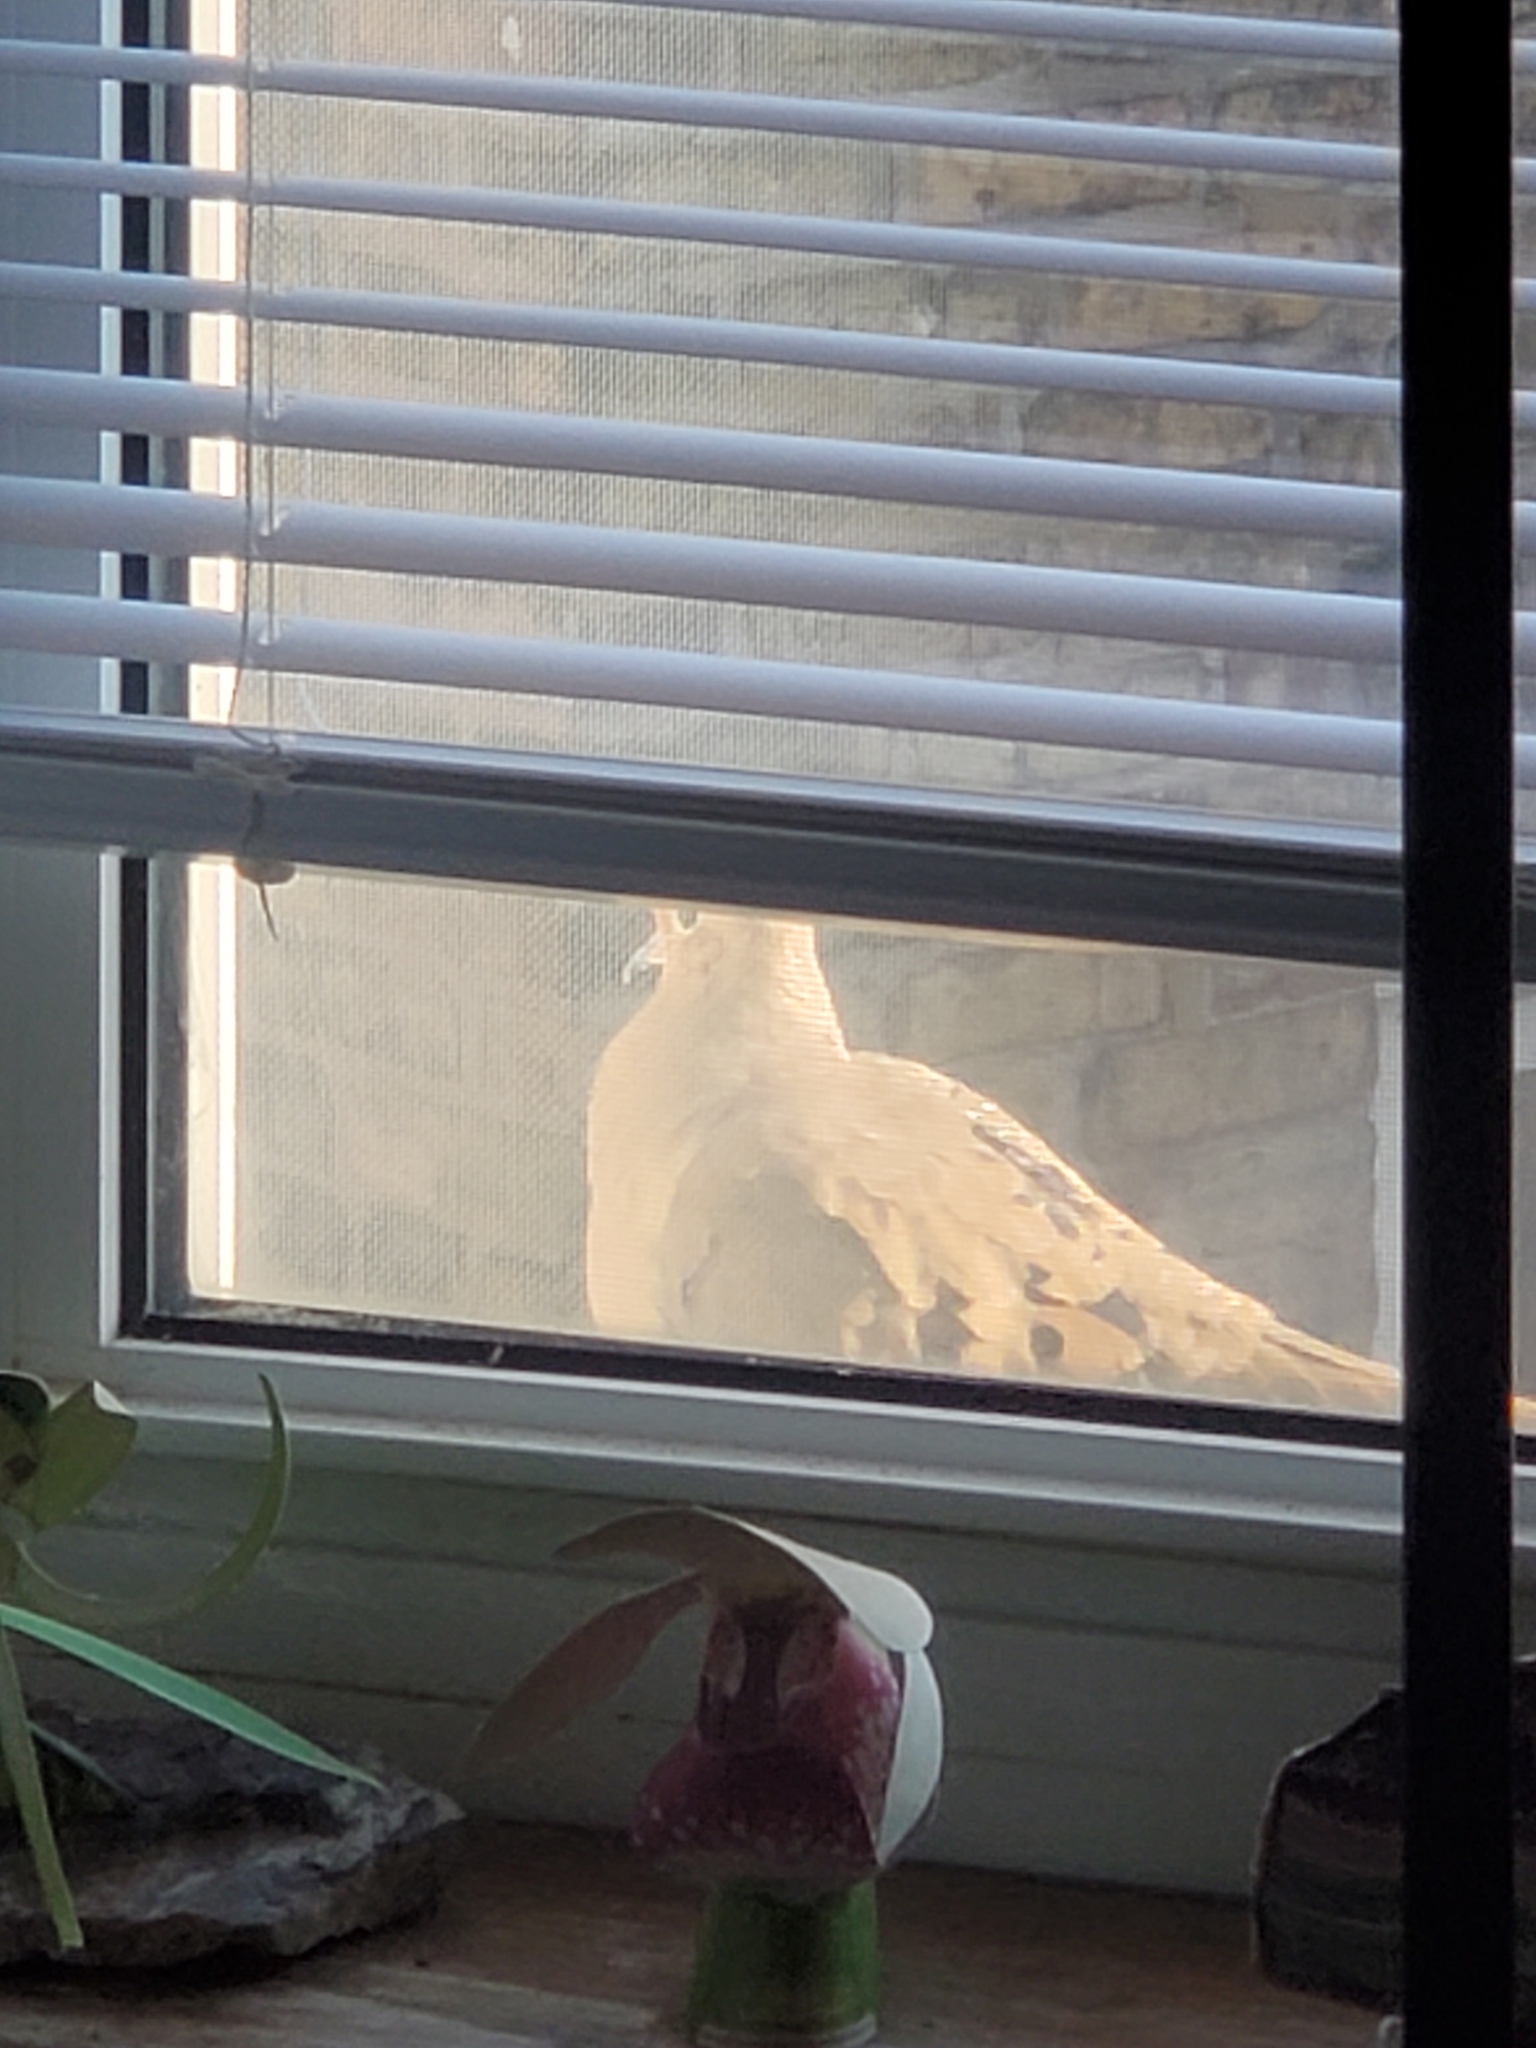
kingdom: Animalia
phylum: Chordata
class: Aves
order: Columbiformes
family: Columbidae
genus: Zenaida
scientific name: Zenaida macroura
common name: Mourning dove
